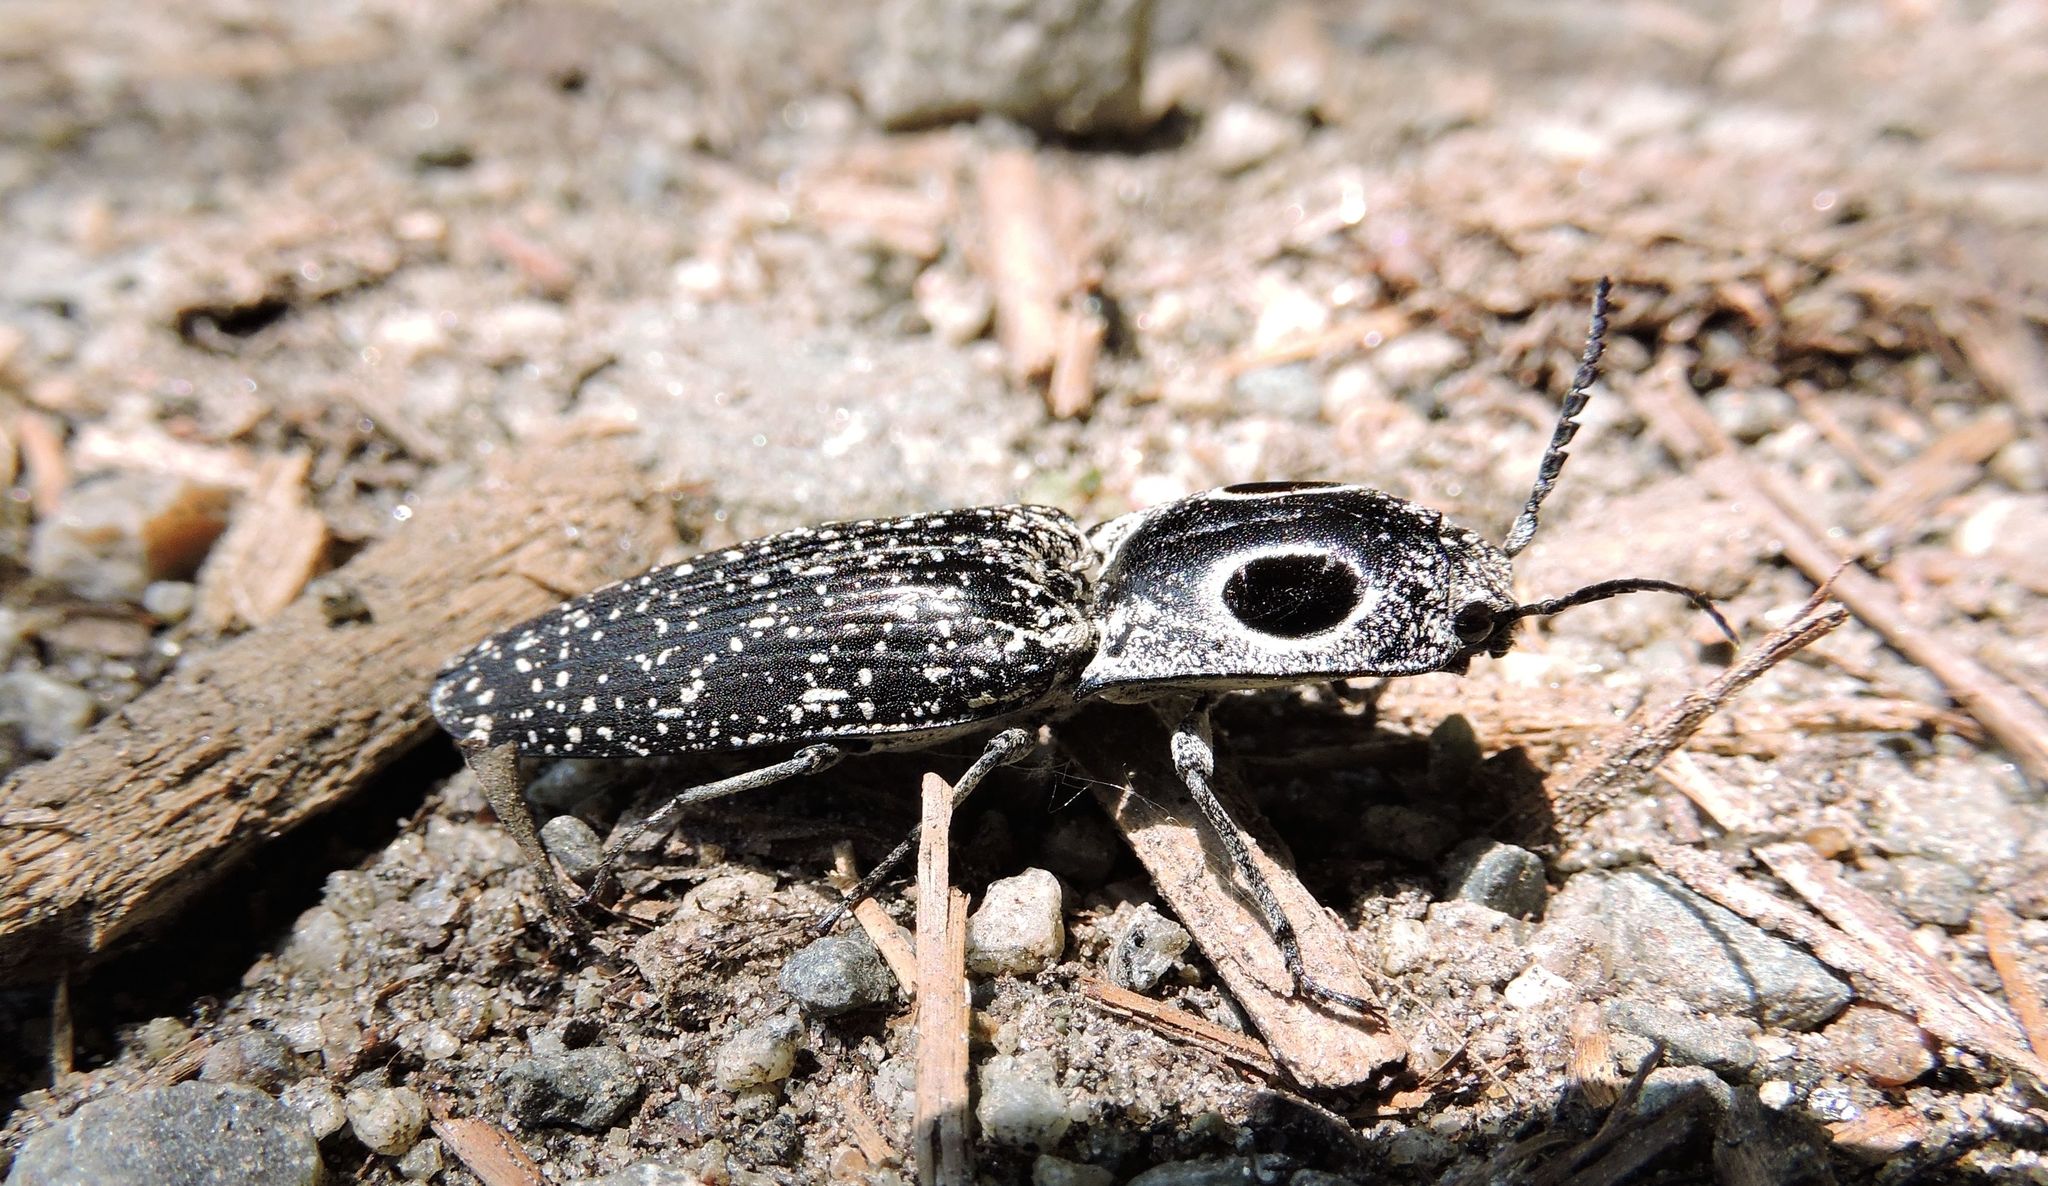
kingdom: Animalia
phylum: Arthropoda
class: Insecta
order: Coleoptera
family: Elateridae
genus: Alaus
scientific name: Alaus oculatus
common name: Eastern eyed click beetle
